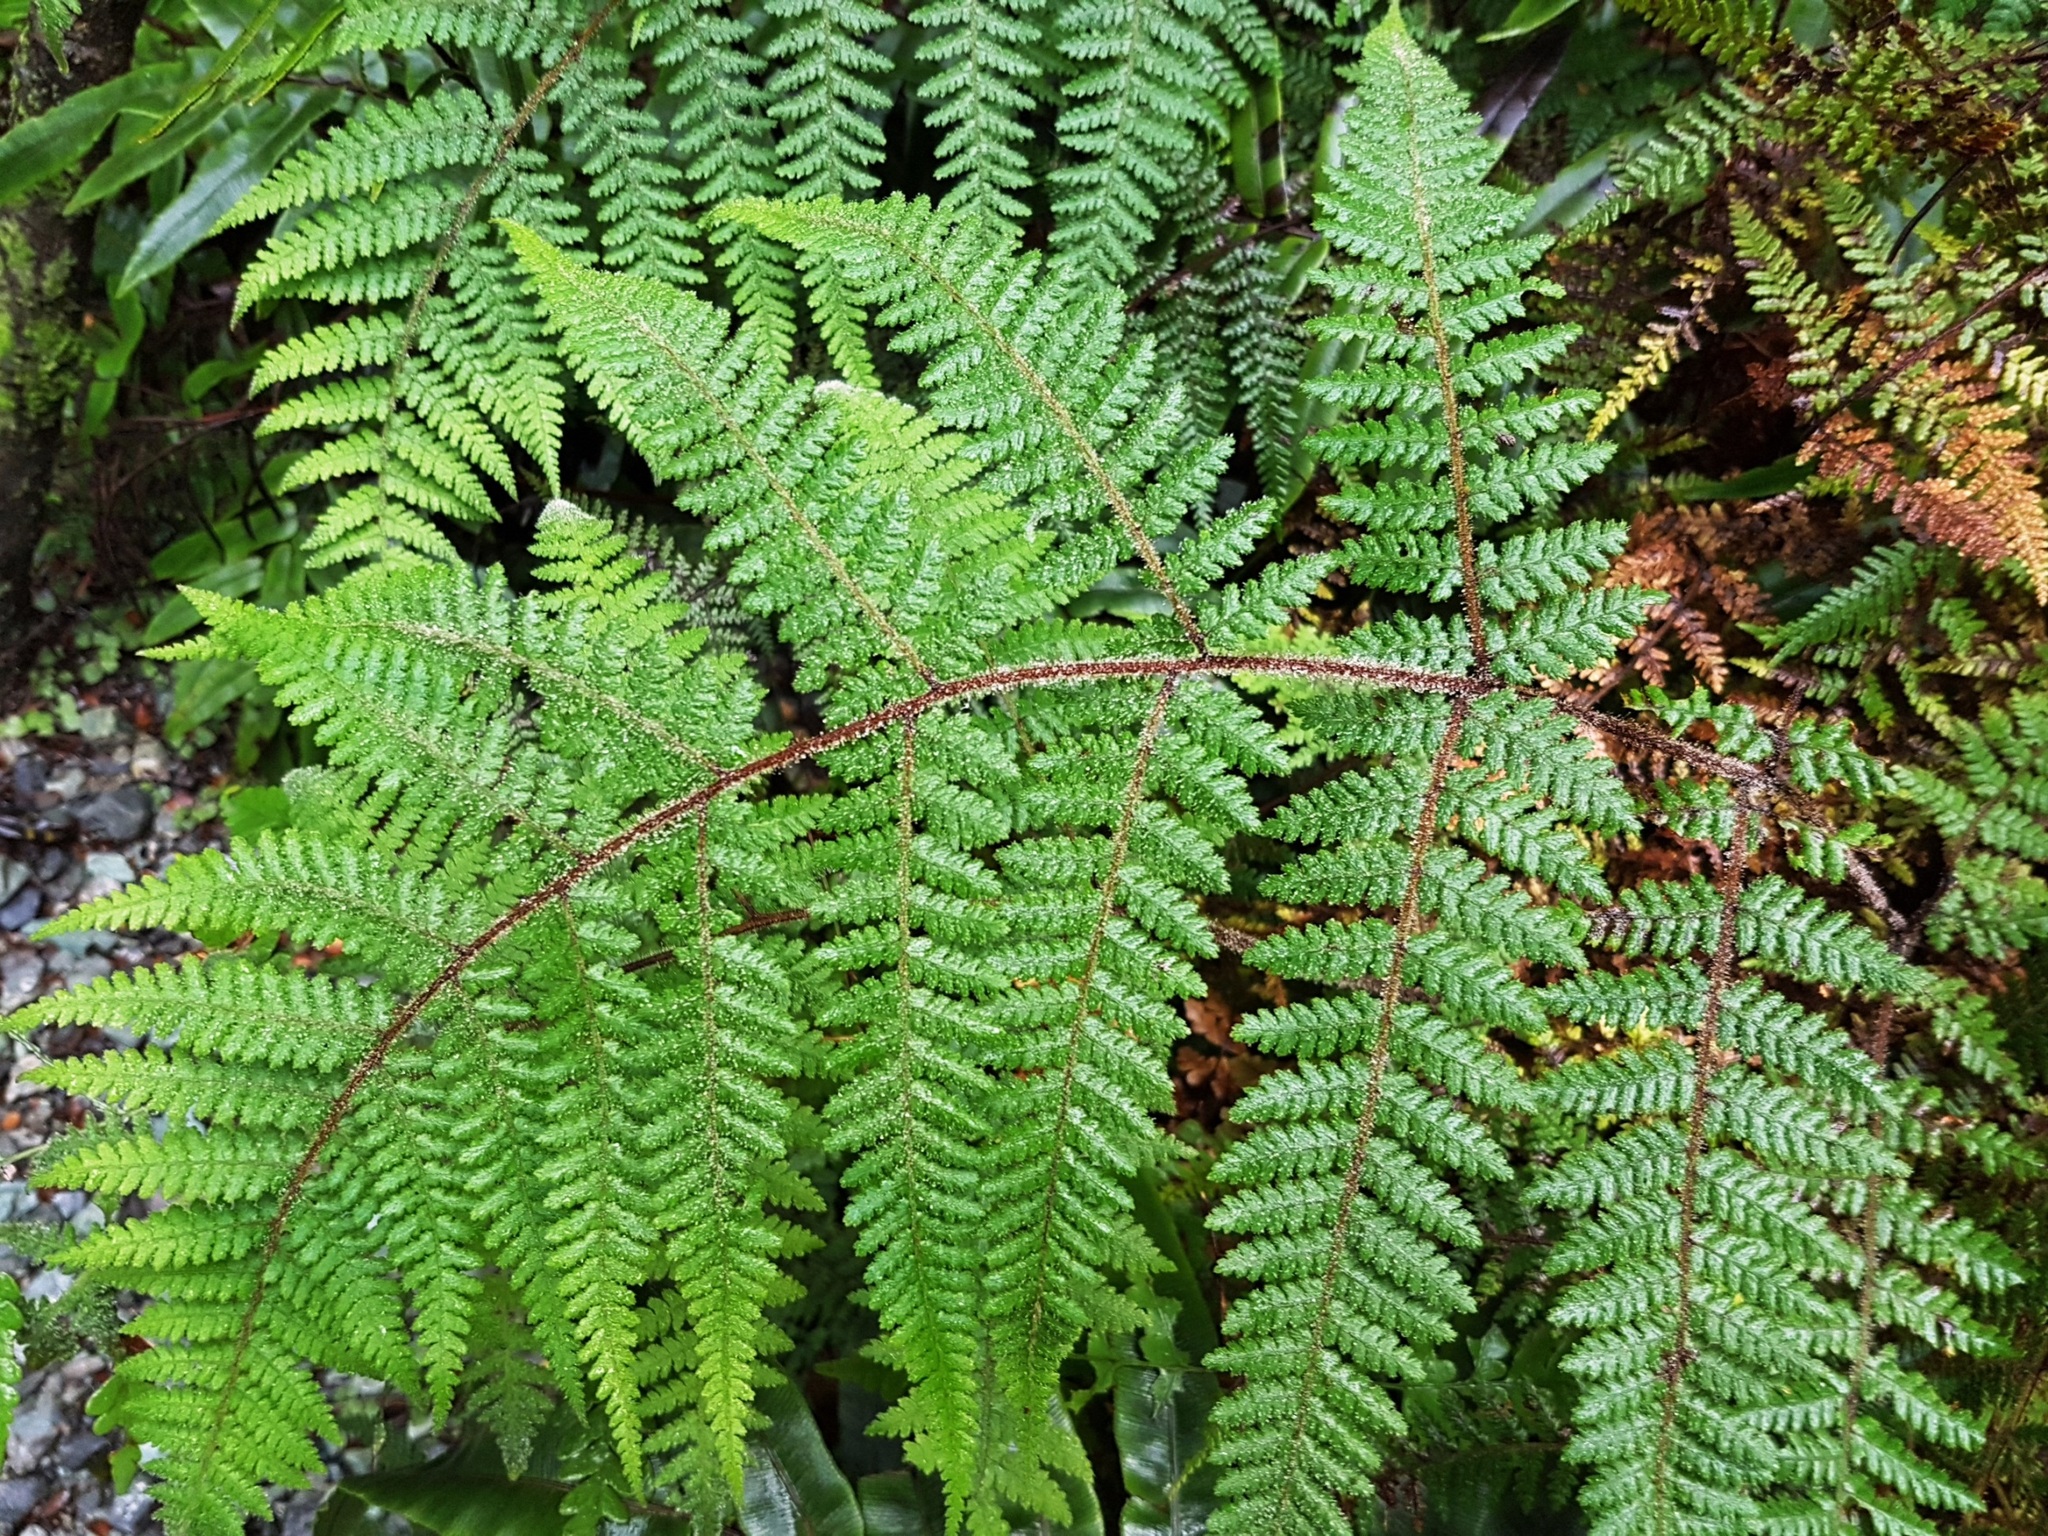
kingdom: Plantae
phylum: Tracheophyta
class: Polypodiopsida
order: Polypodiales
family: Dennstaedtiaceae
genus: Hypolepis
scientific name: Hypolepis rugosula
